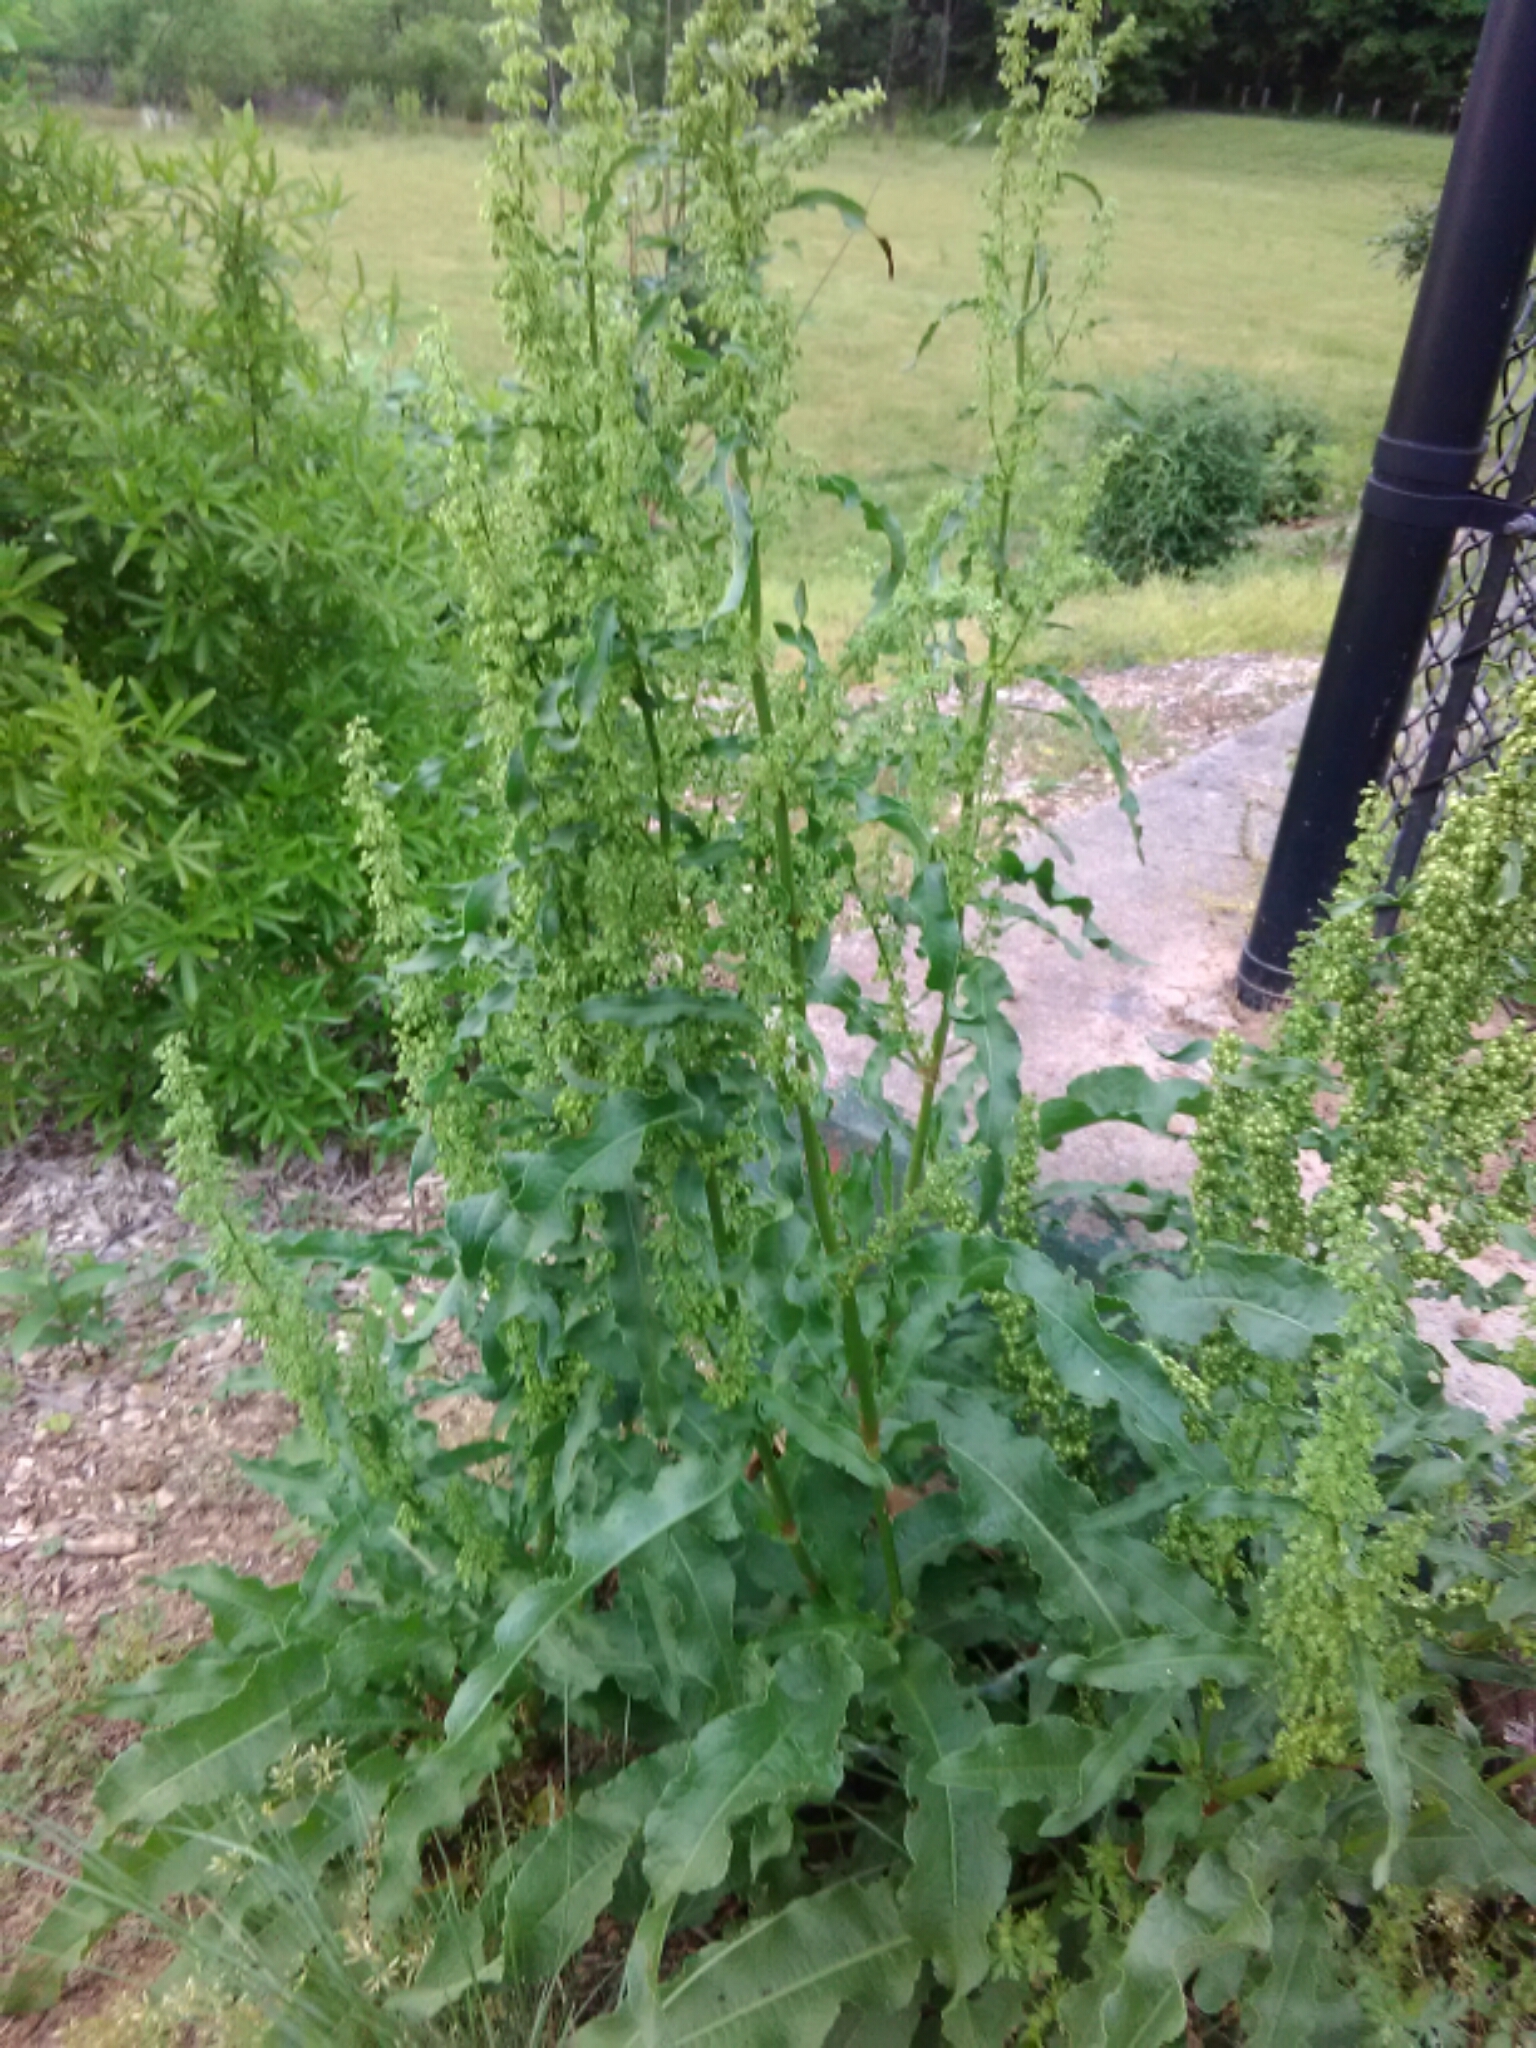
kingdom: Plantae
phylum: Tracheophyta
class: Magnoliopsida
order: Caryophyllales
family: Polygonaceae
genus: Rumex
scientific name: Rumex crispus
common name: Curled dock
